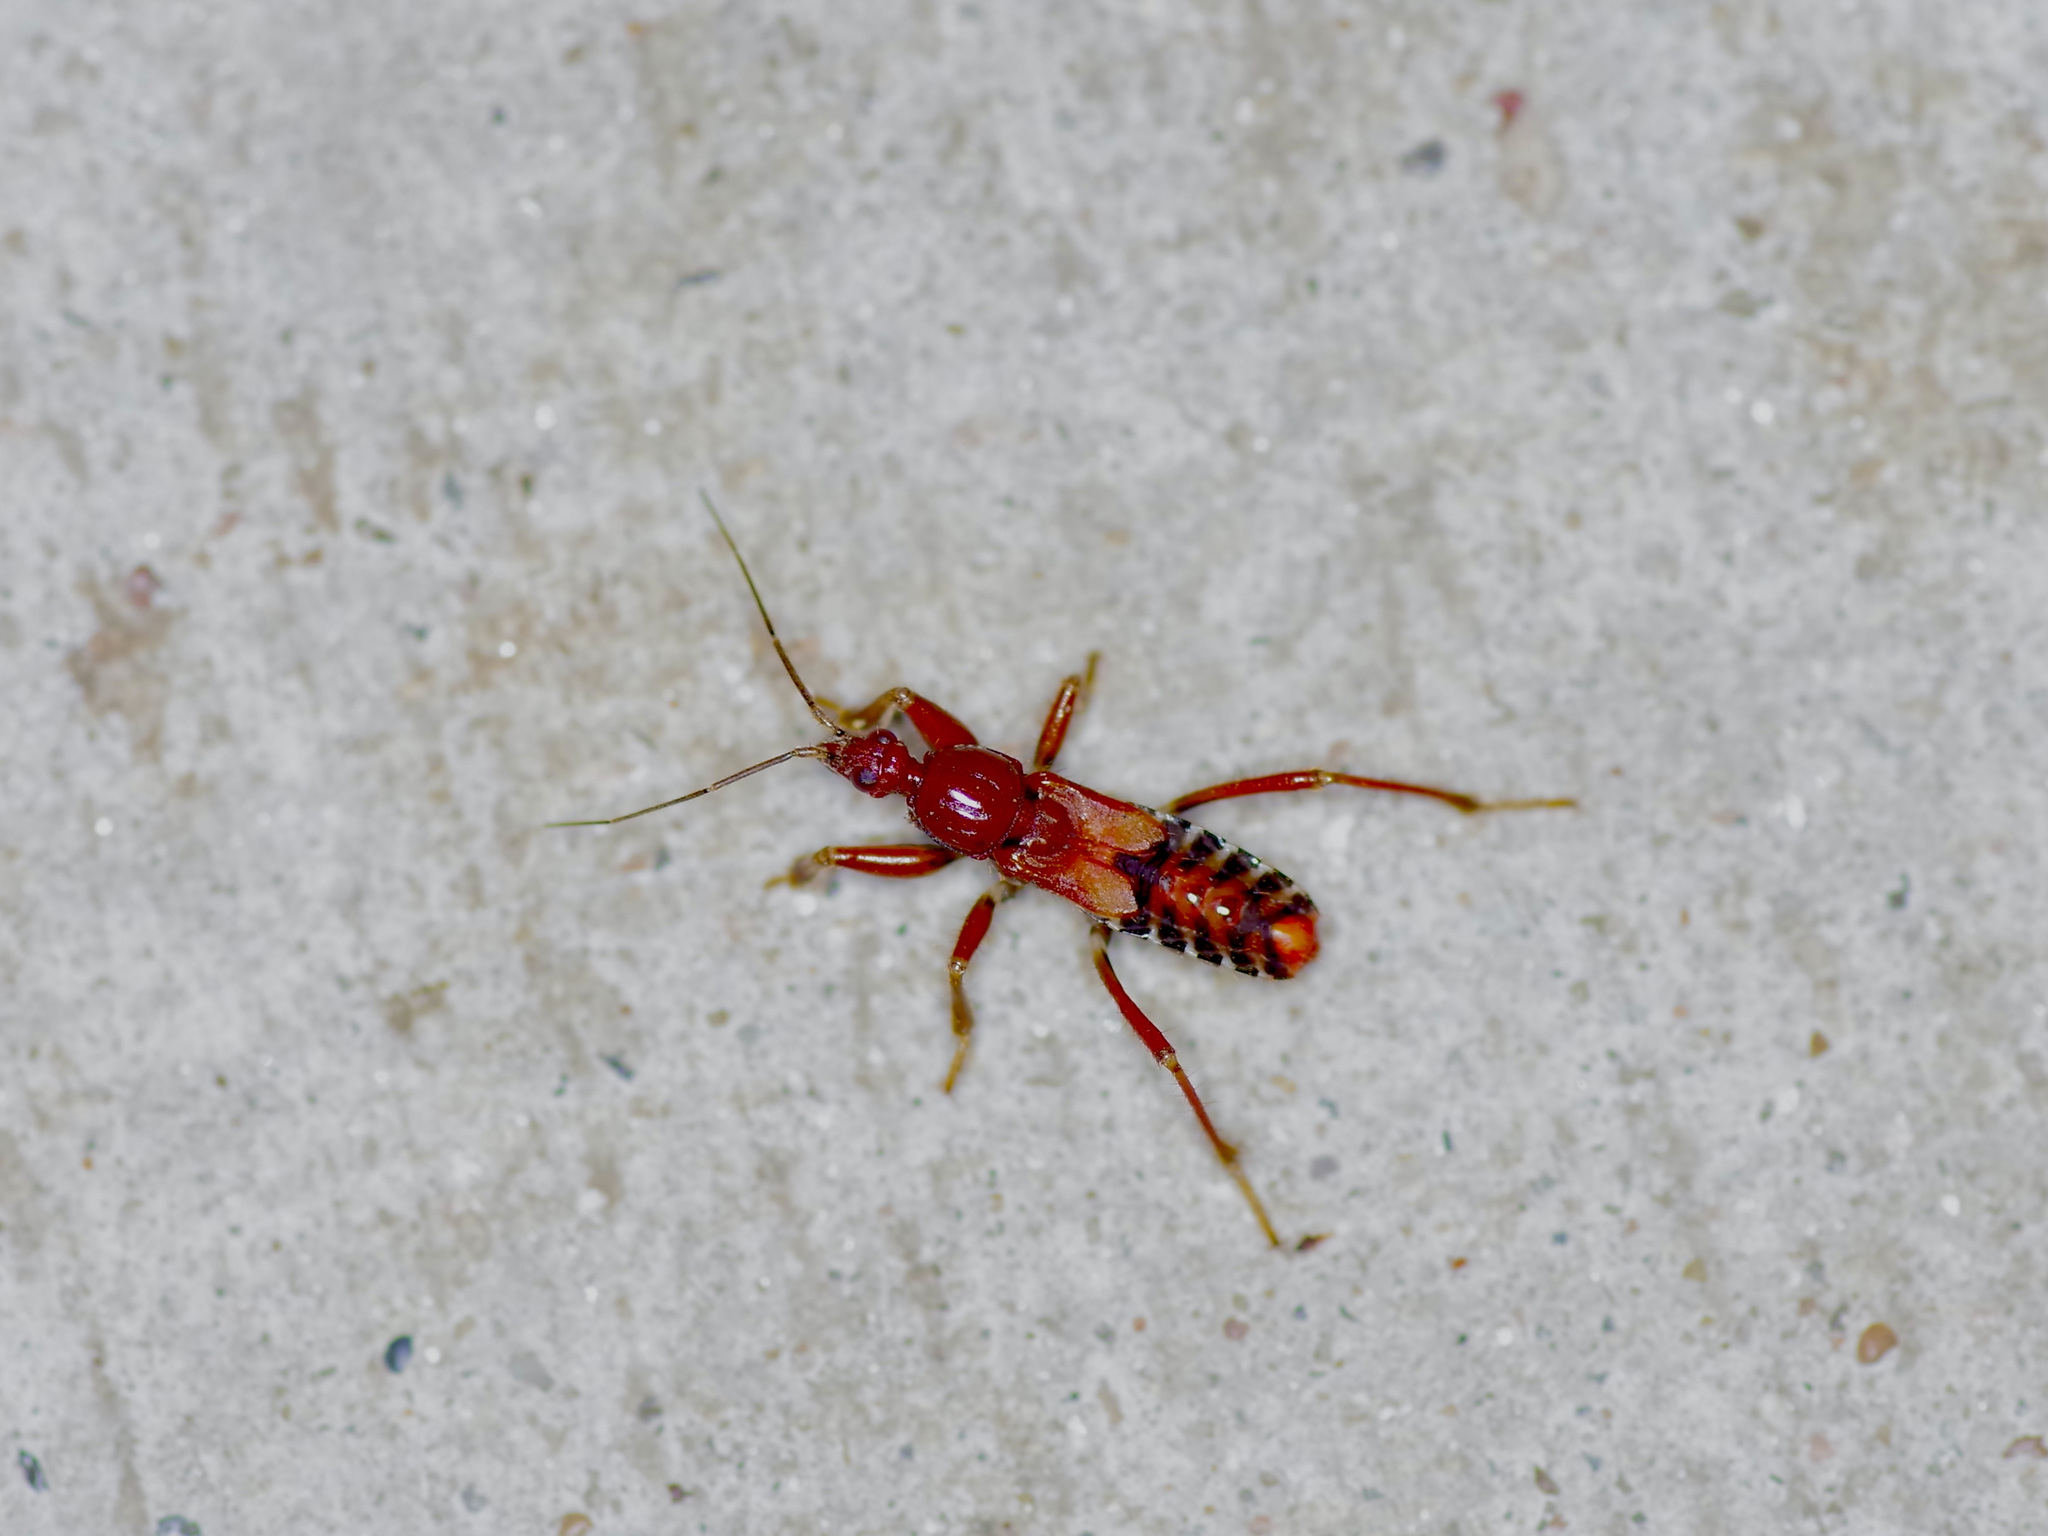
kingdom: Animalia
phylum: Arthropoda
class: Insecta
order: Hemiptera
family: Reduviidae
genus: Rasahus
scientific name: Rasahus hamatus
